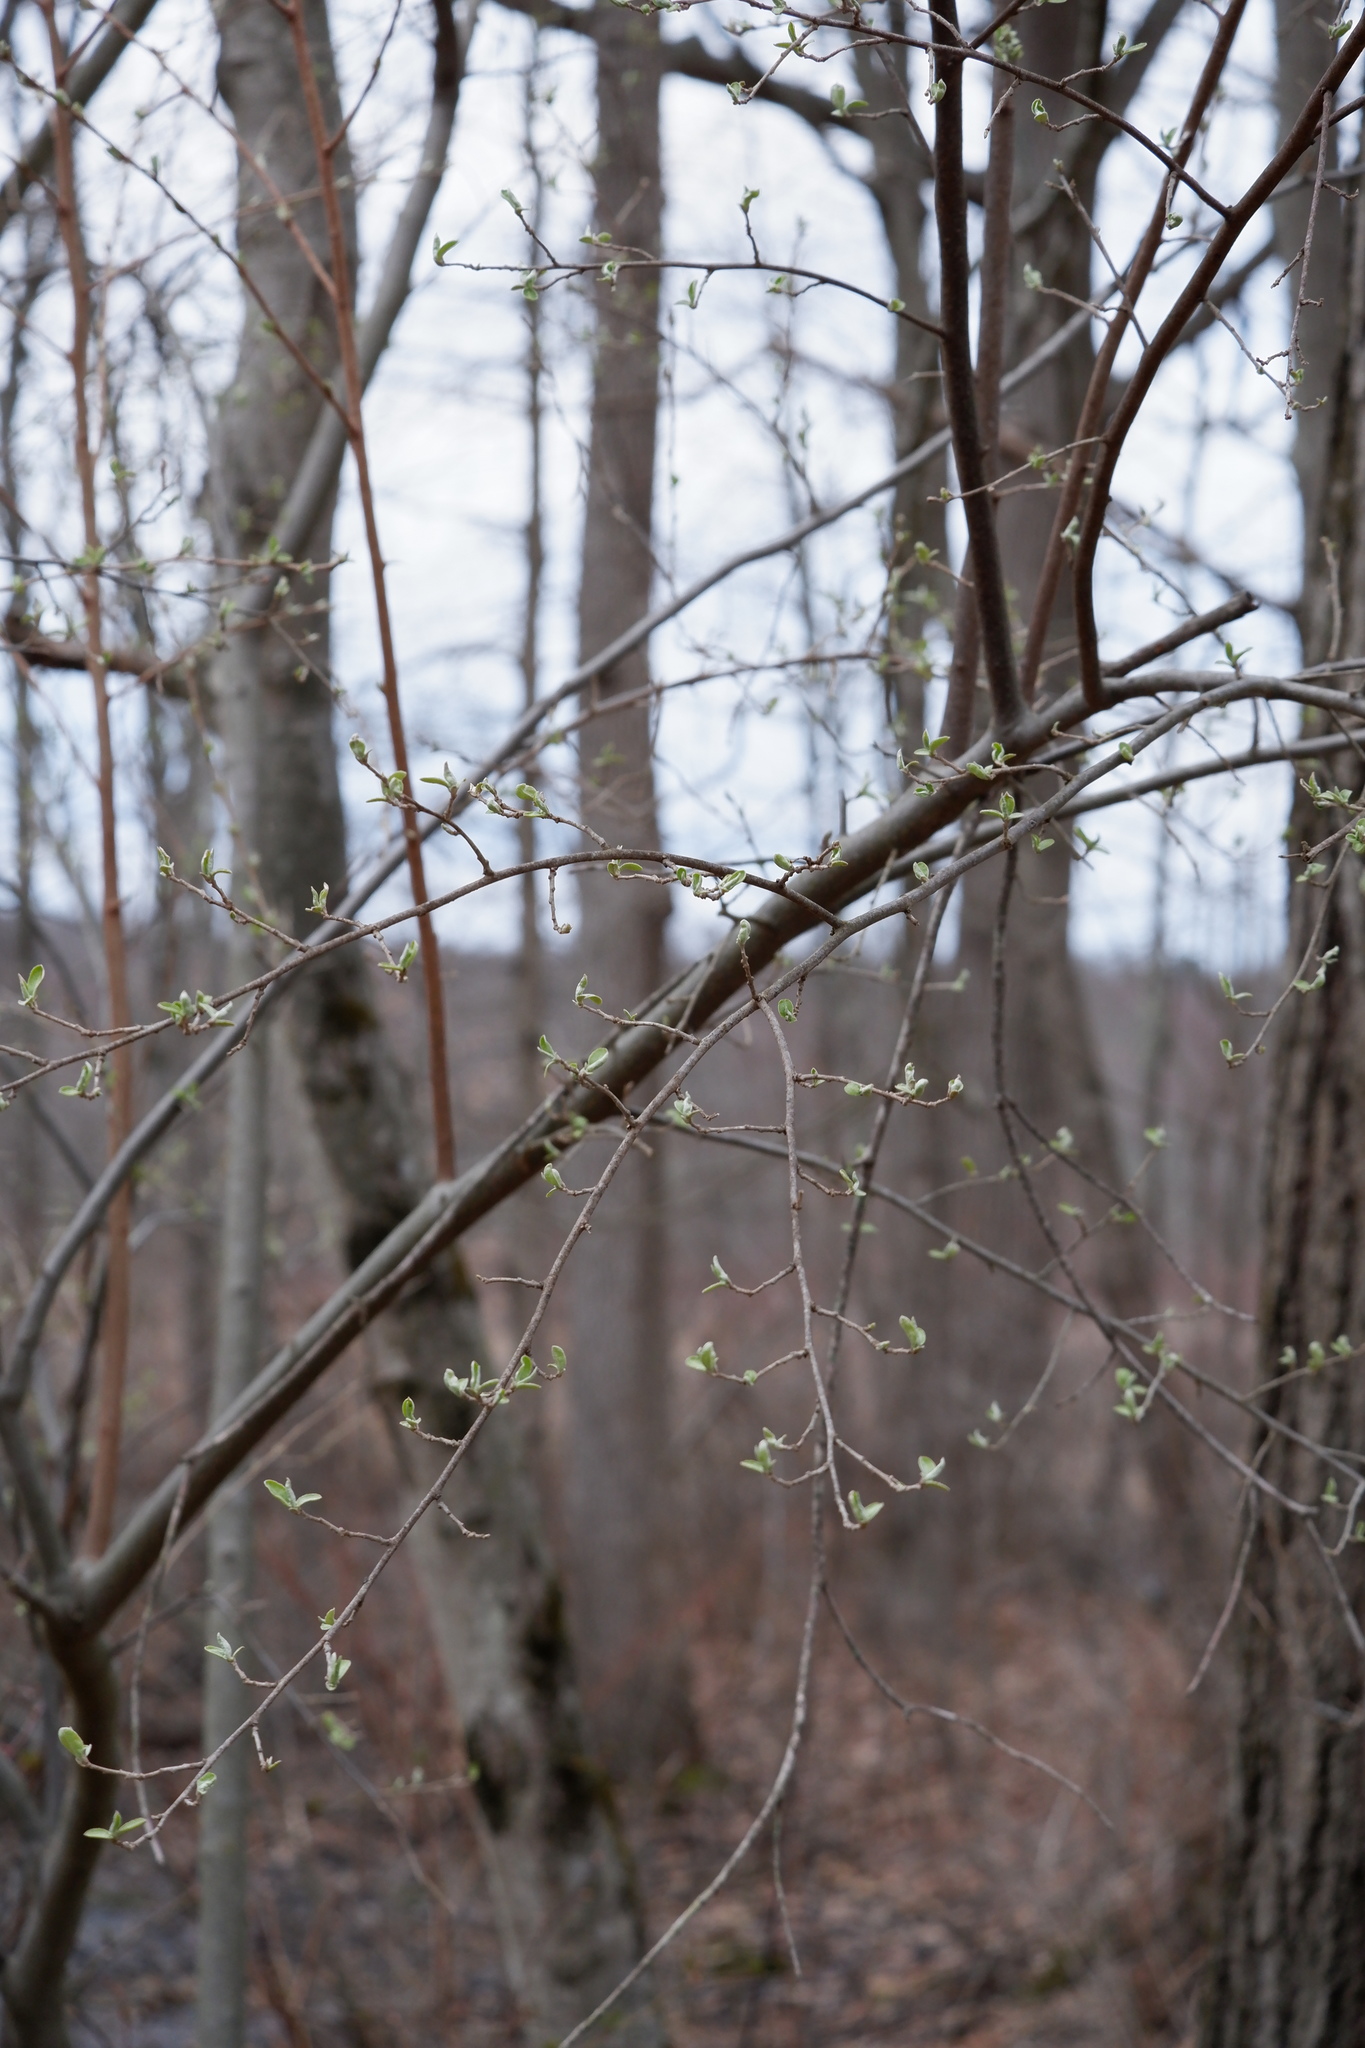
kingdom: Plantae
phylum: Tracheophyta
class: Magnoliopsida
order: Rosales
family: Elaeagnaceae
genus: Elaeagnus
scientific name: Elaeagnus umbellata
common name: Autumn olive
